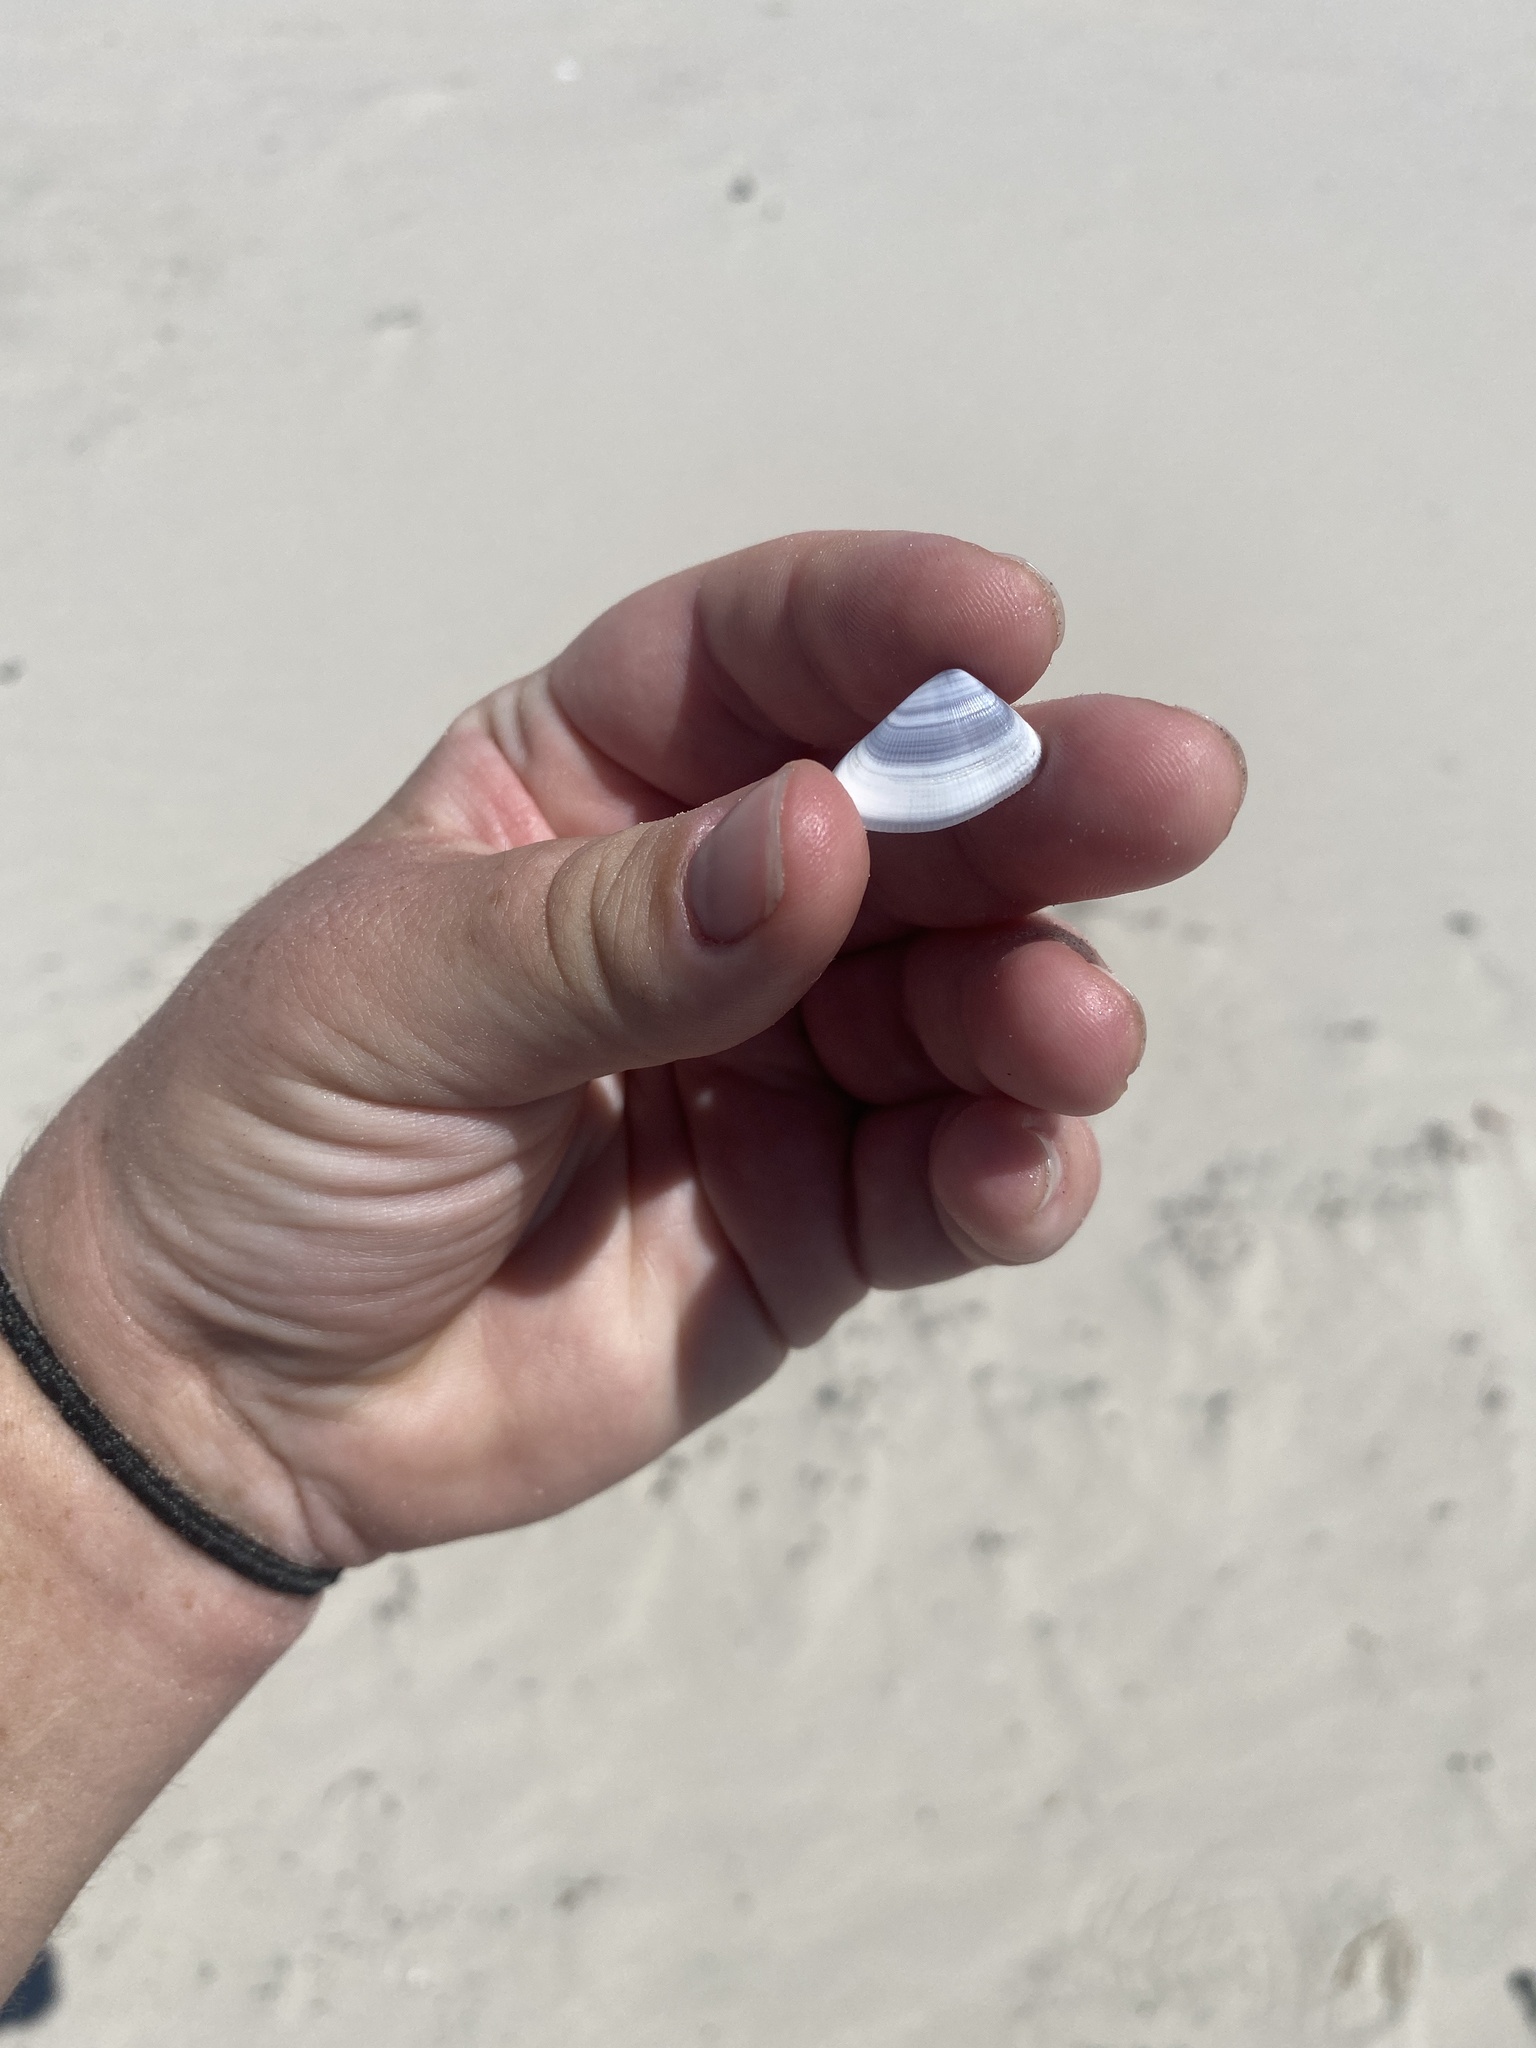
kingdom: Animalia
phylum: Mollusca
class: Bivalvia
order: Cardiida
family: Donacidae
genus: Donax
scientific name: Donax variabilis
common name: Butterfly shell
